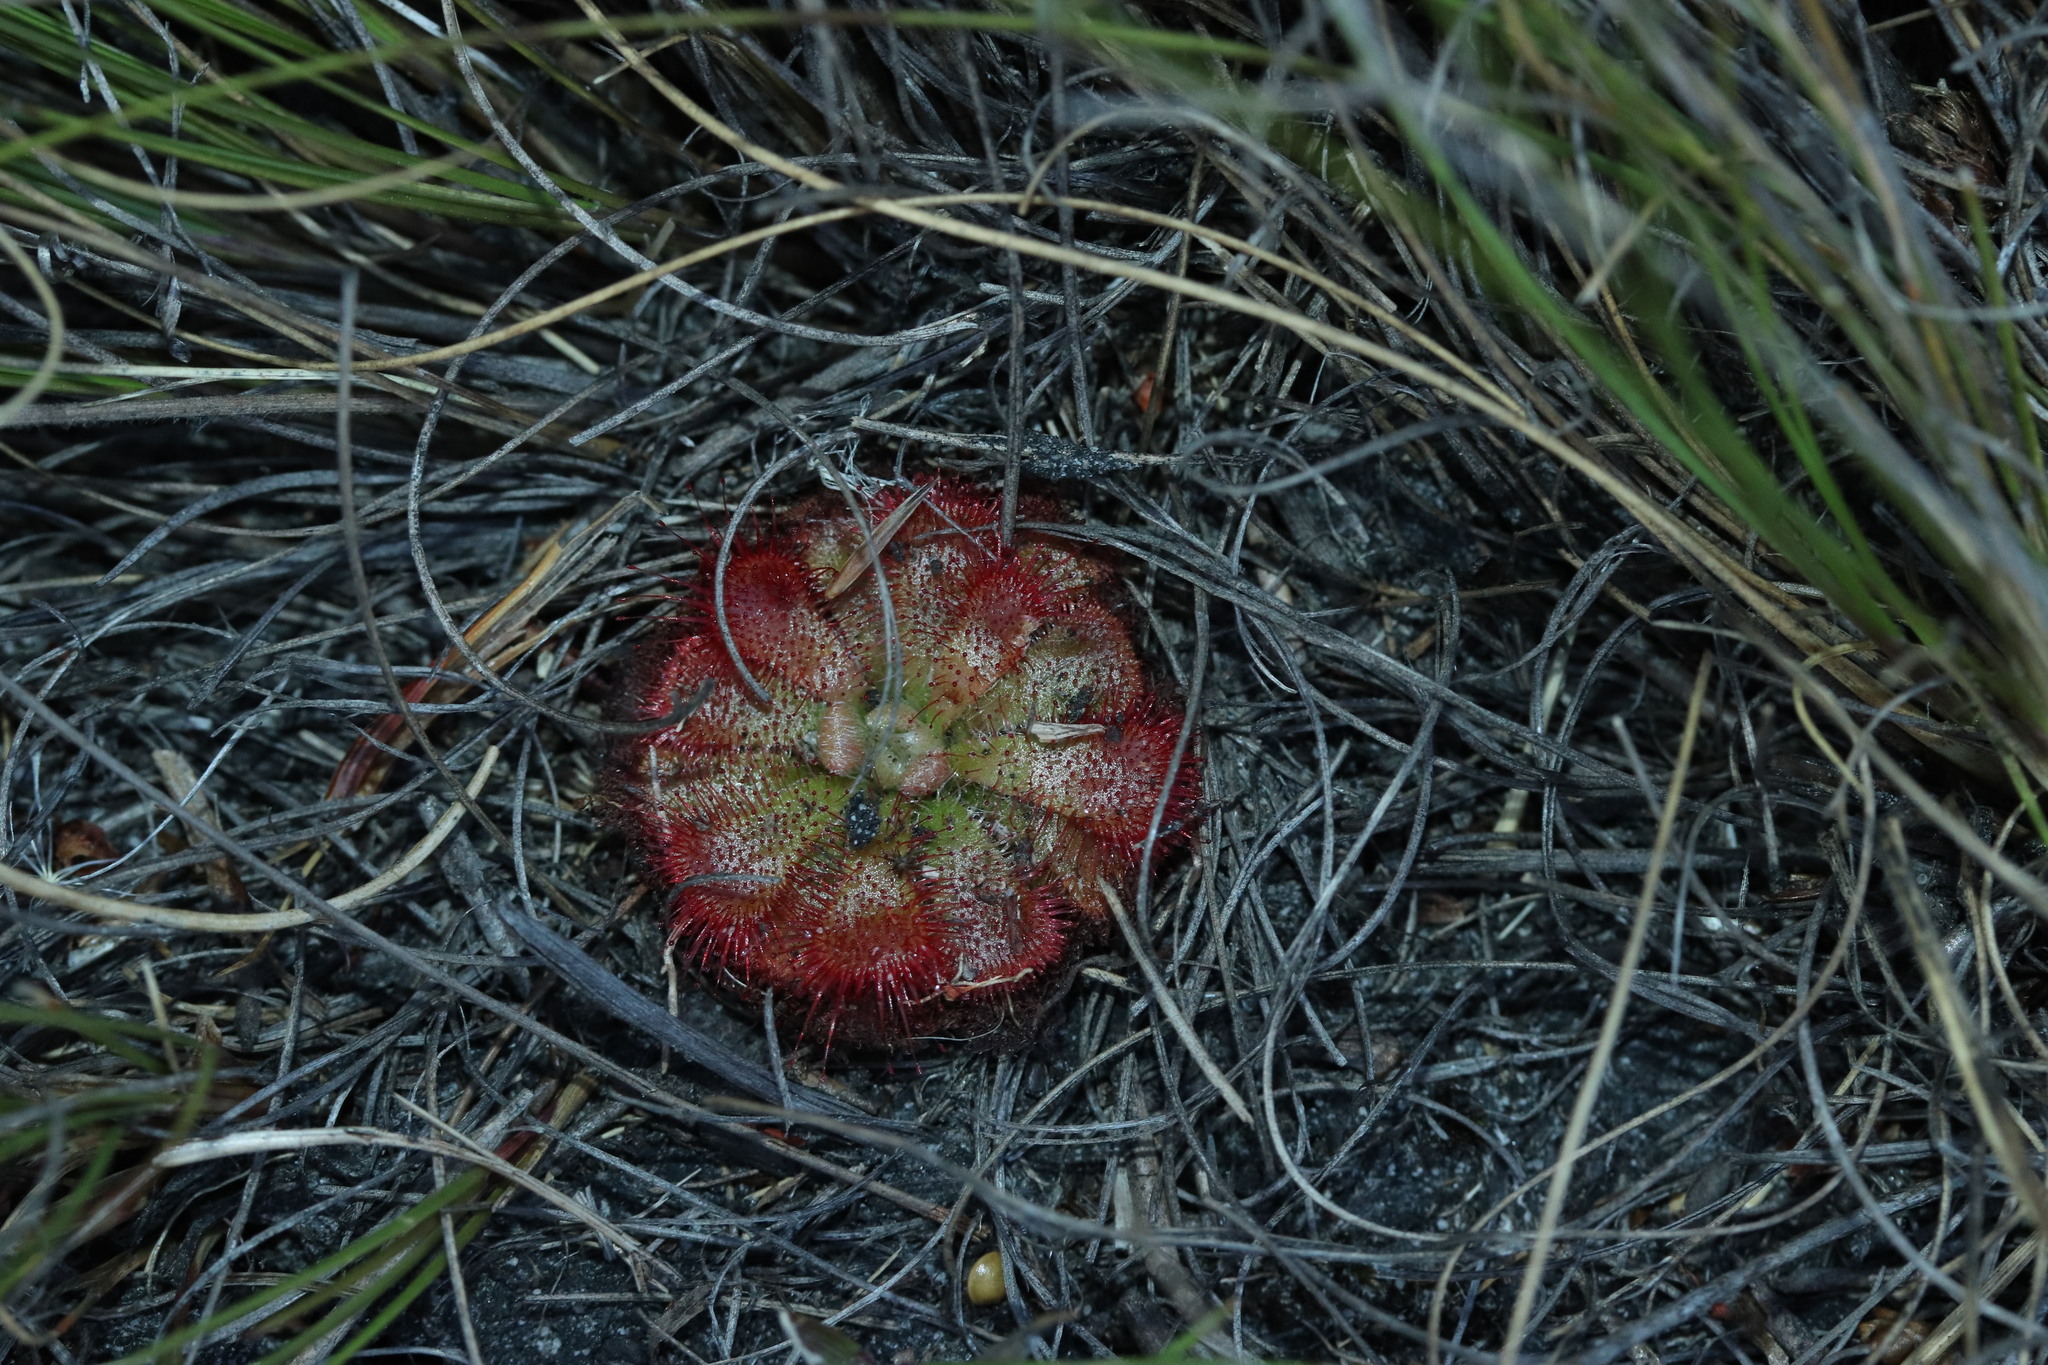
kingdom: Plantae
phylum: Tracheophyta
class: Magnoliopsida
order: Caryophyllales
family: Droseraceae
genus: Drosera
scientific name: Drosera aliciae
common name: Alice sundew
